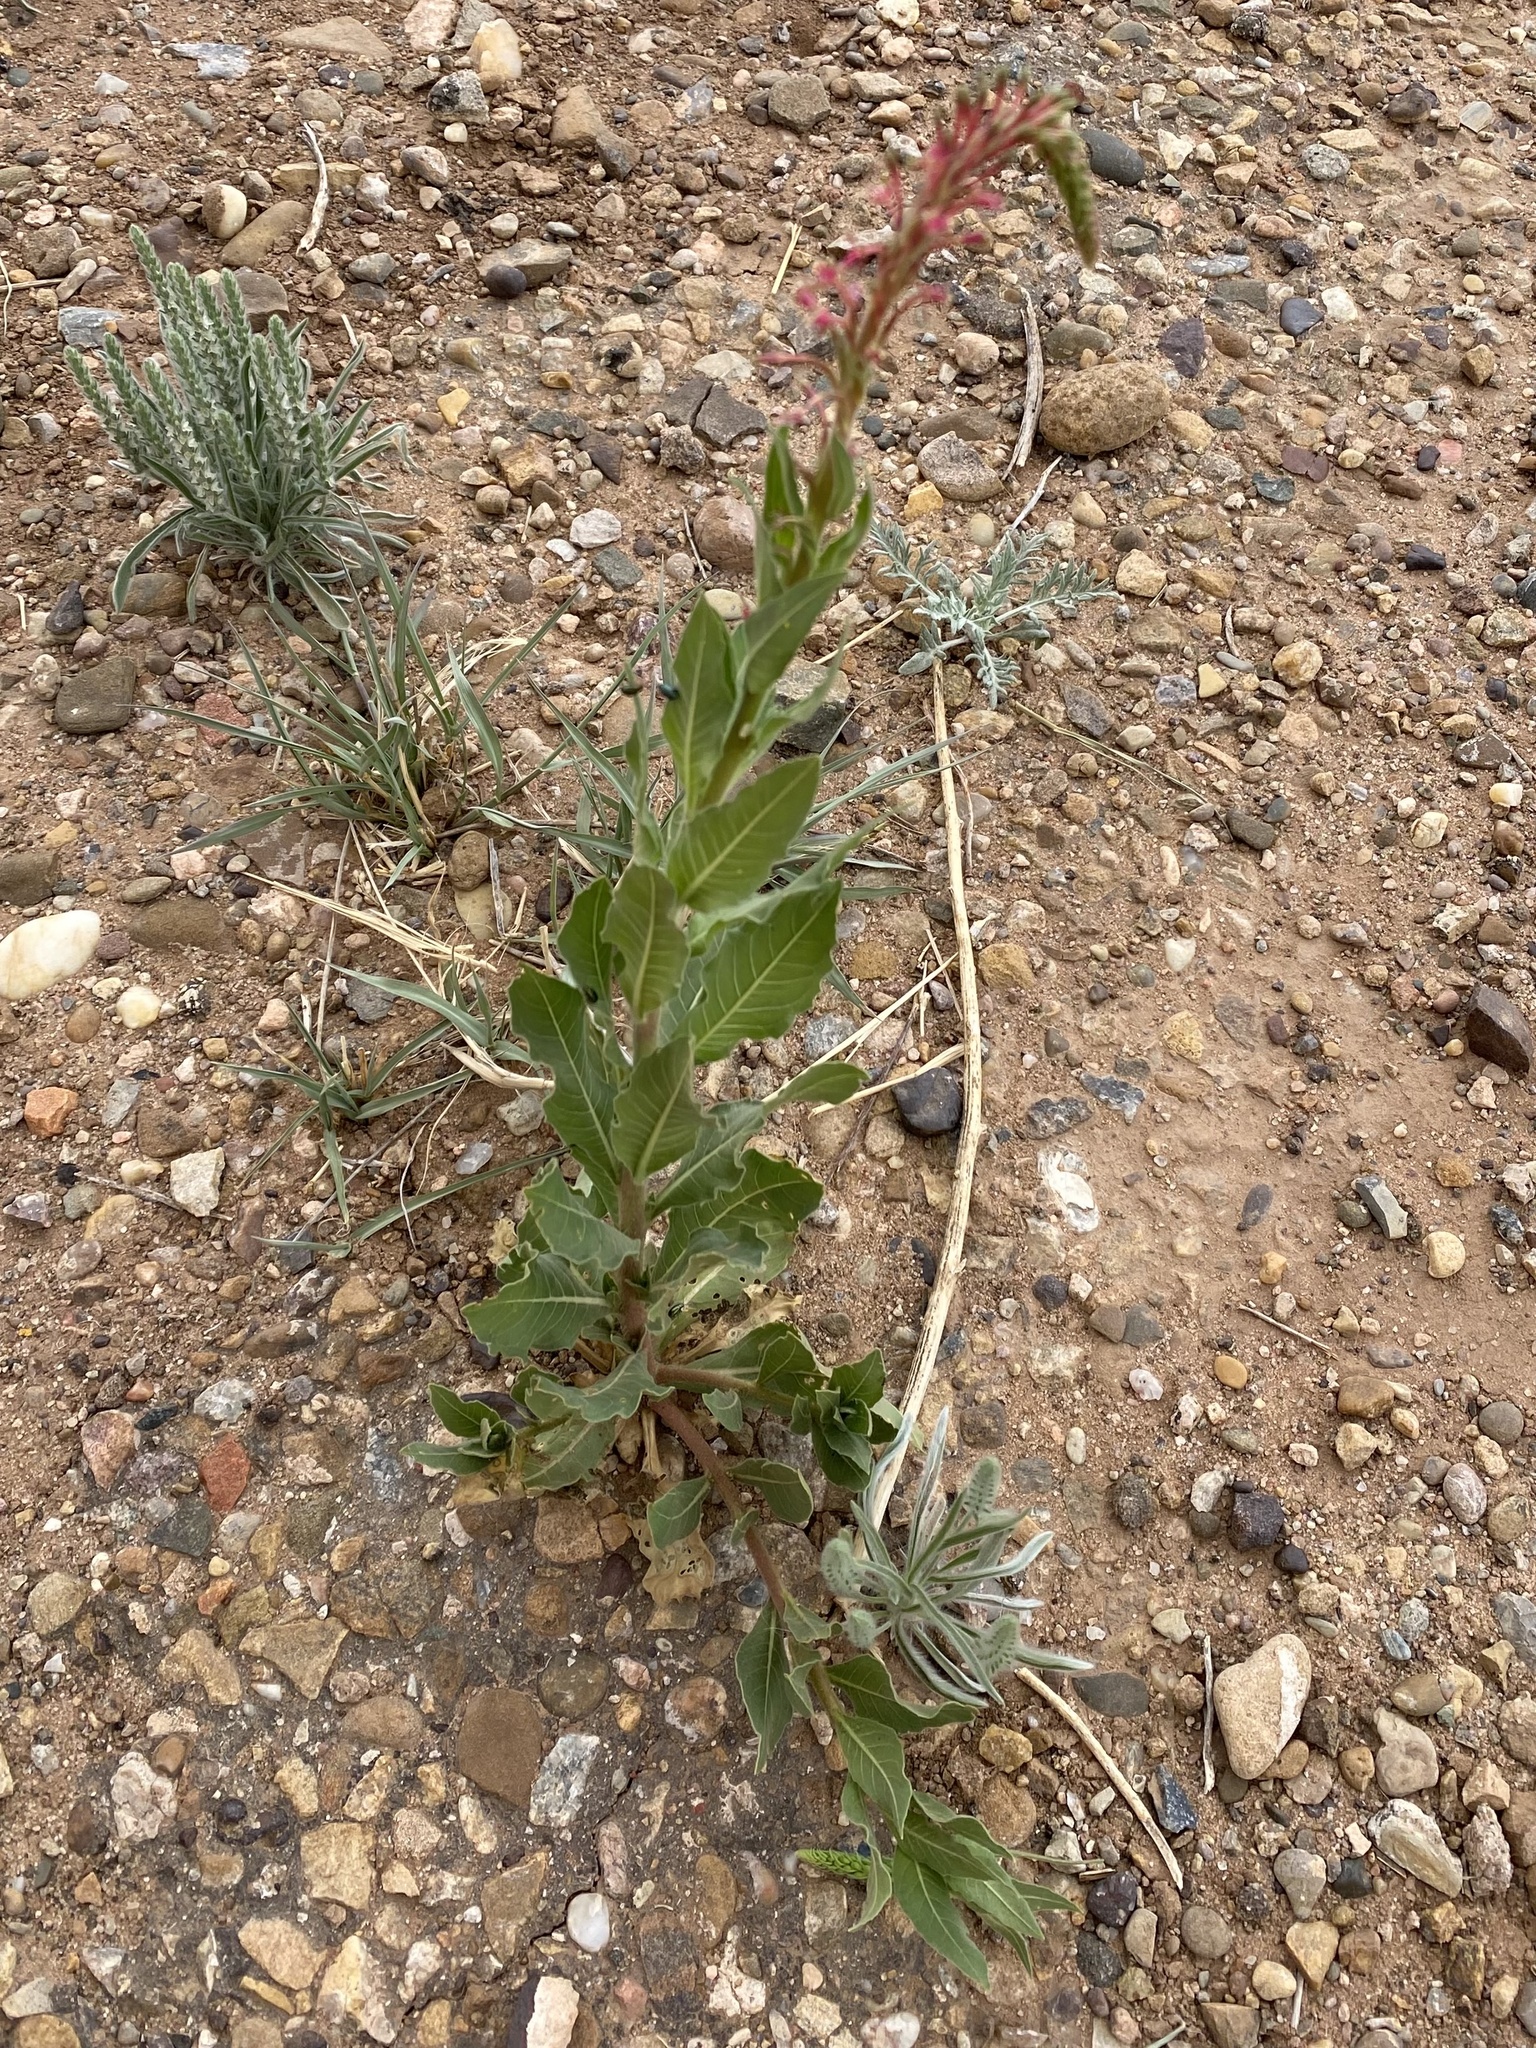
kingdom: Plantae
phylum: Tracheophyta
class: Magnoliopsida
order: Myrtales
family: Onagraceae
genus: Oenothera
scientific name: Oenothera curtiflora
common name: Velvetweed
